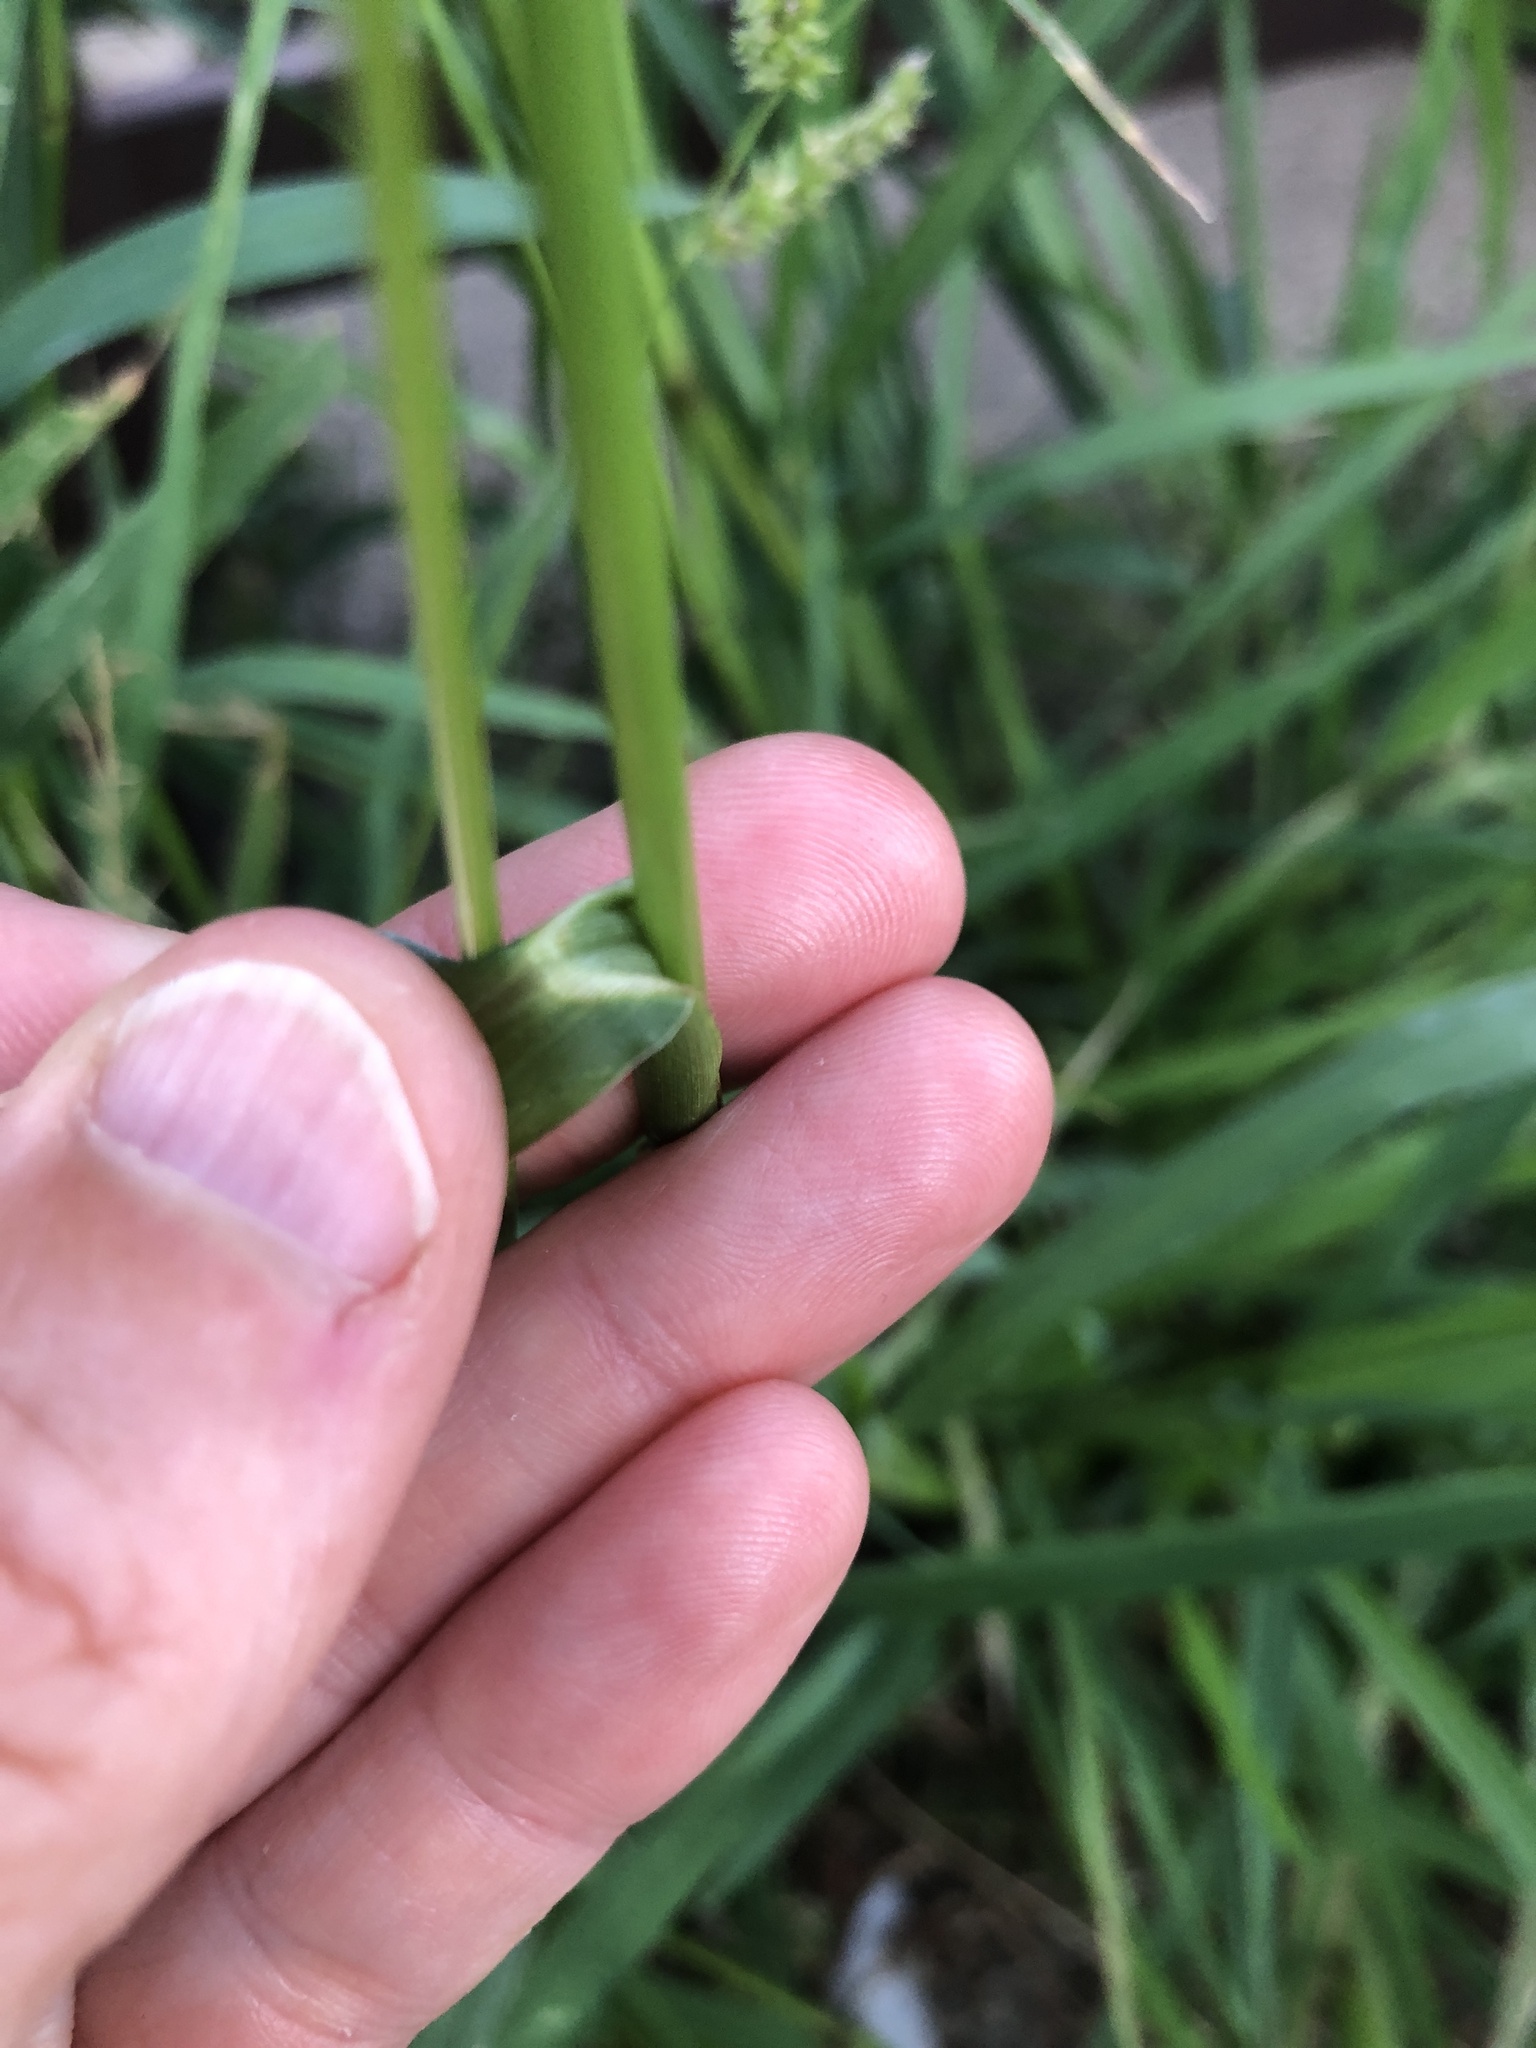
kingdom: Plantae
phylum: Tracheophyta
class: Liliopsida
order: Poales
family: Poaceae
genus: Echinochloa
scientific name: Echinochloa crus-galli
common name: Cockspur
